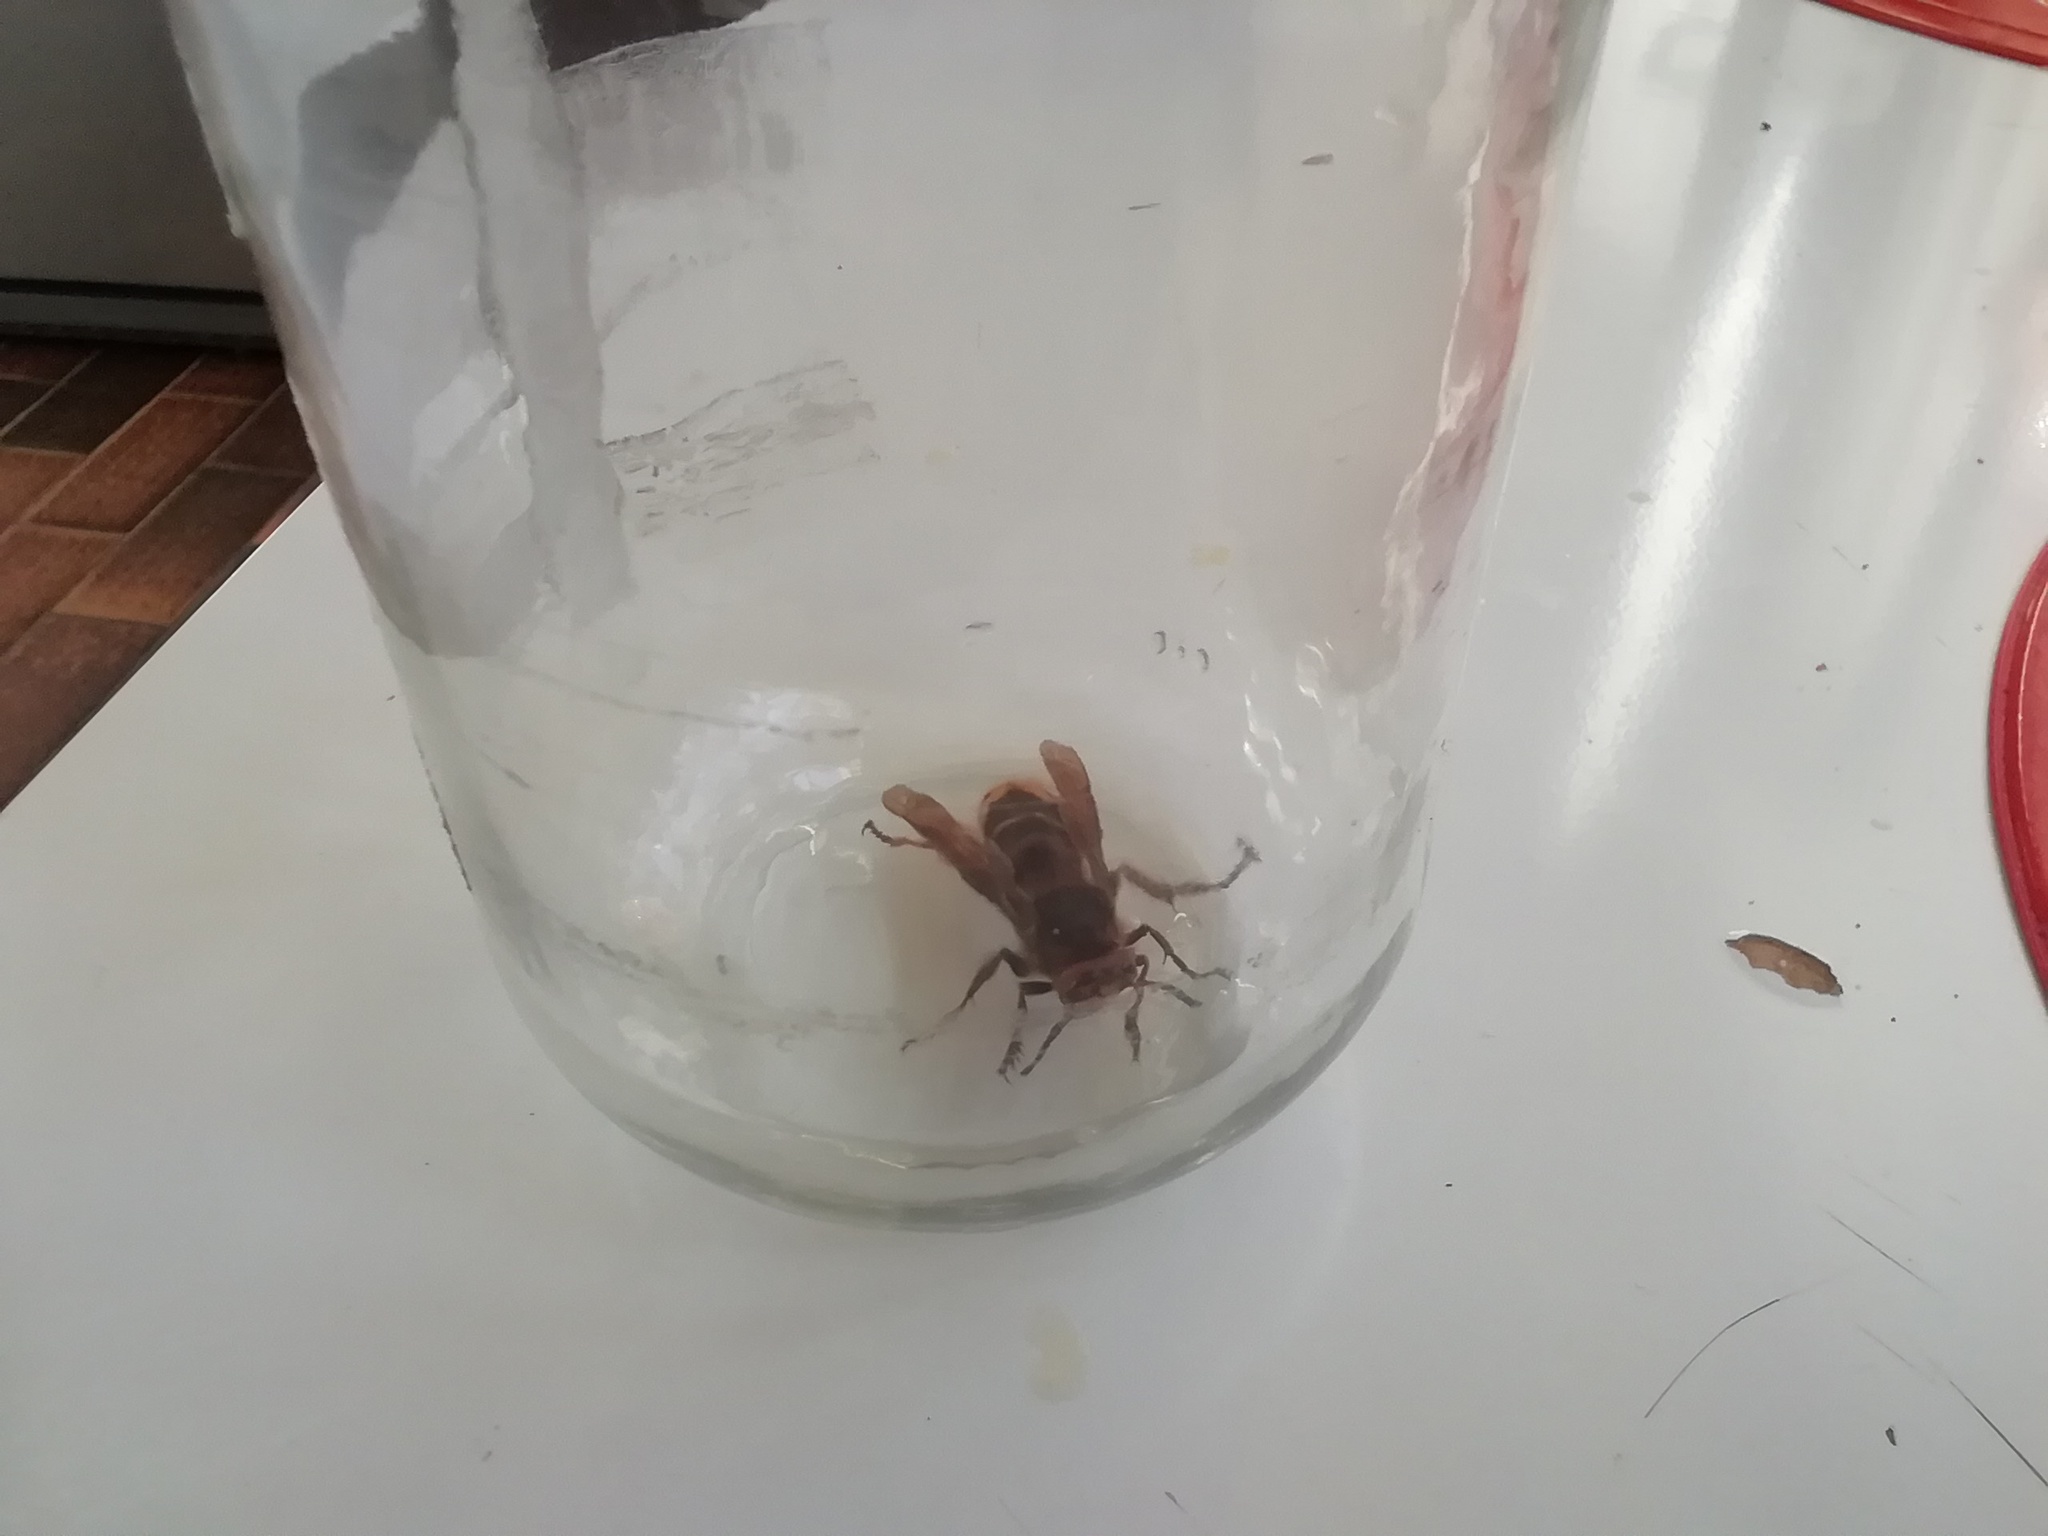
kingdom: Animalia
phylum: Arthropoda
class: Insecta
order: Hymenoptera
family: Vespidae
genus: Vespa
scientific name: Vespa crabro
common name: Hornet
